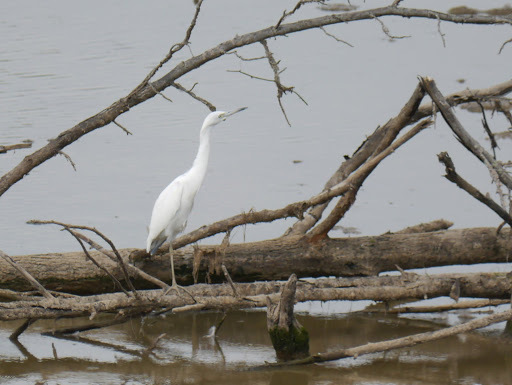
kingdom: Animalia
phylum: Chordata
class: Aves
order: Pelecaniformes
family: Ardeidae
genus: Egretta
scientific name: Egretta caerulea
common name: Little blue heron
